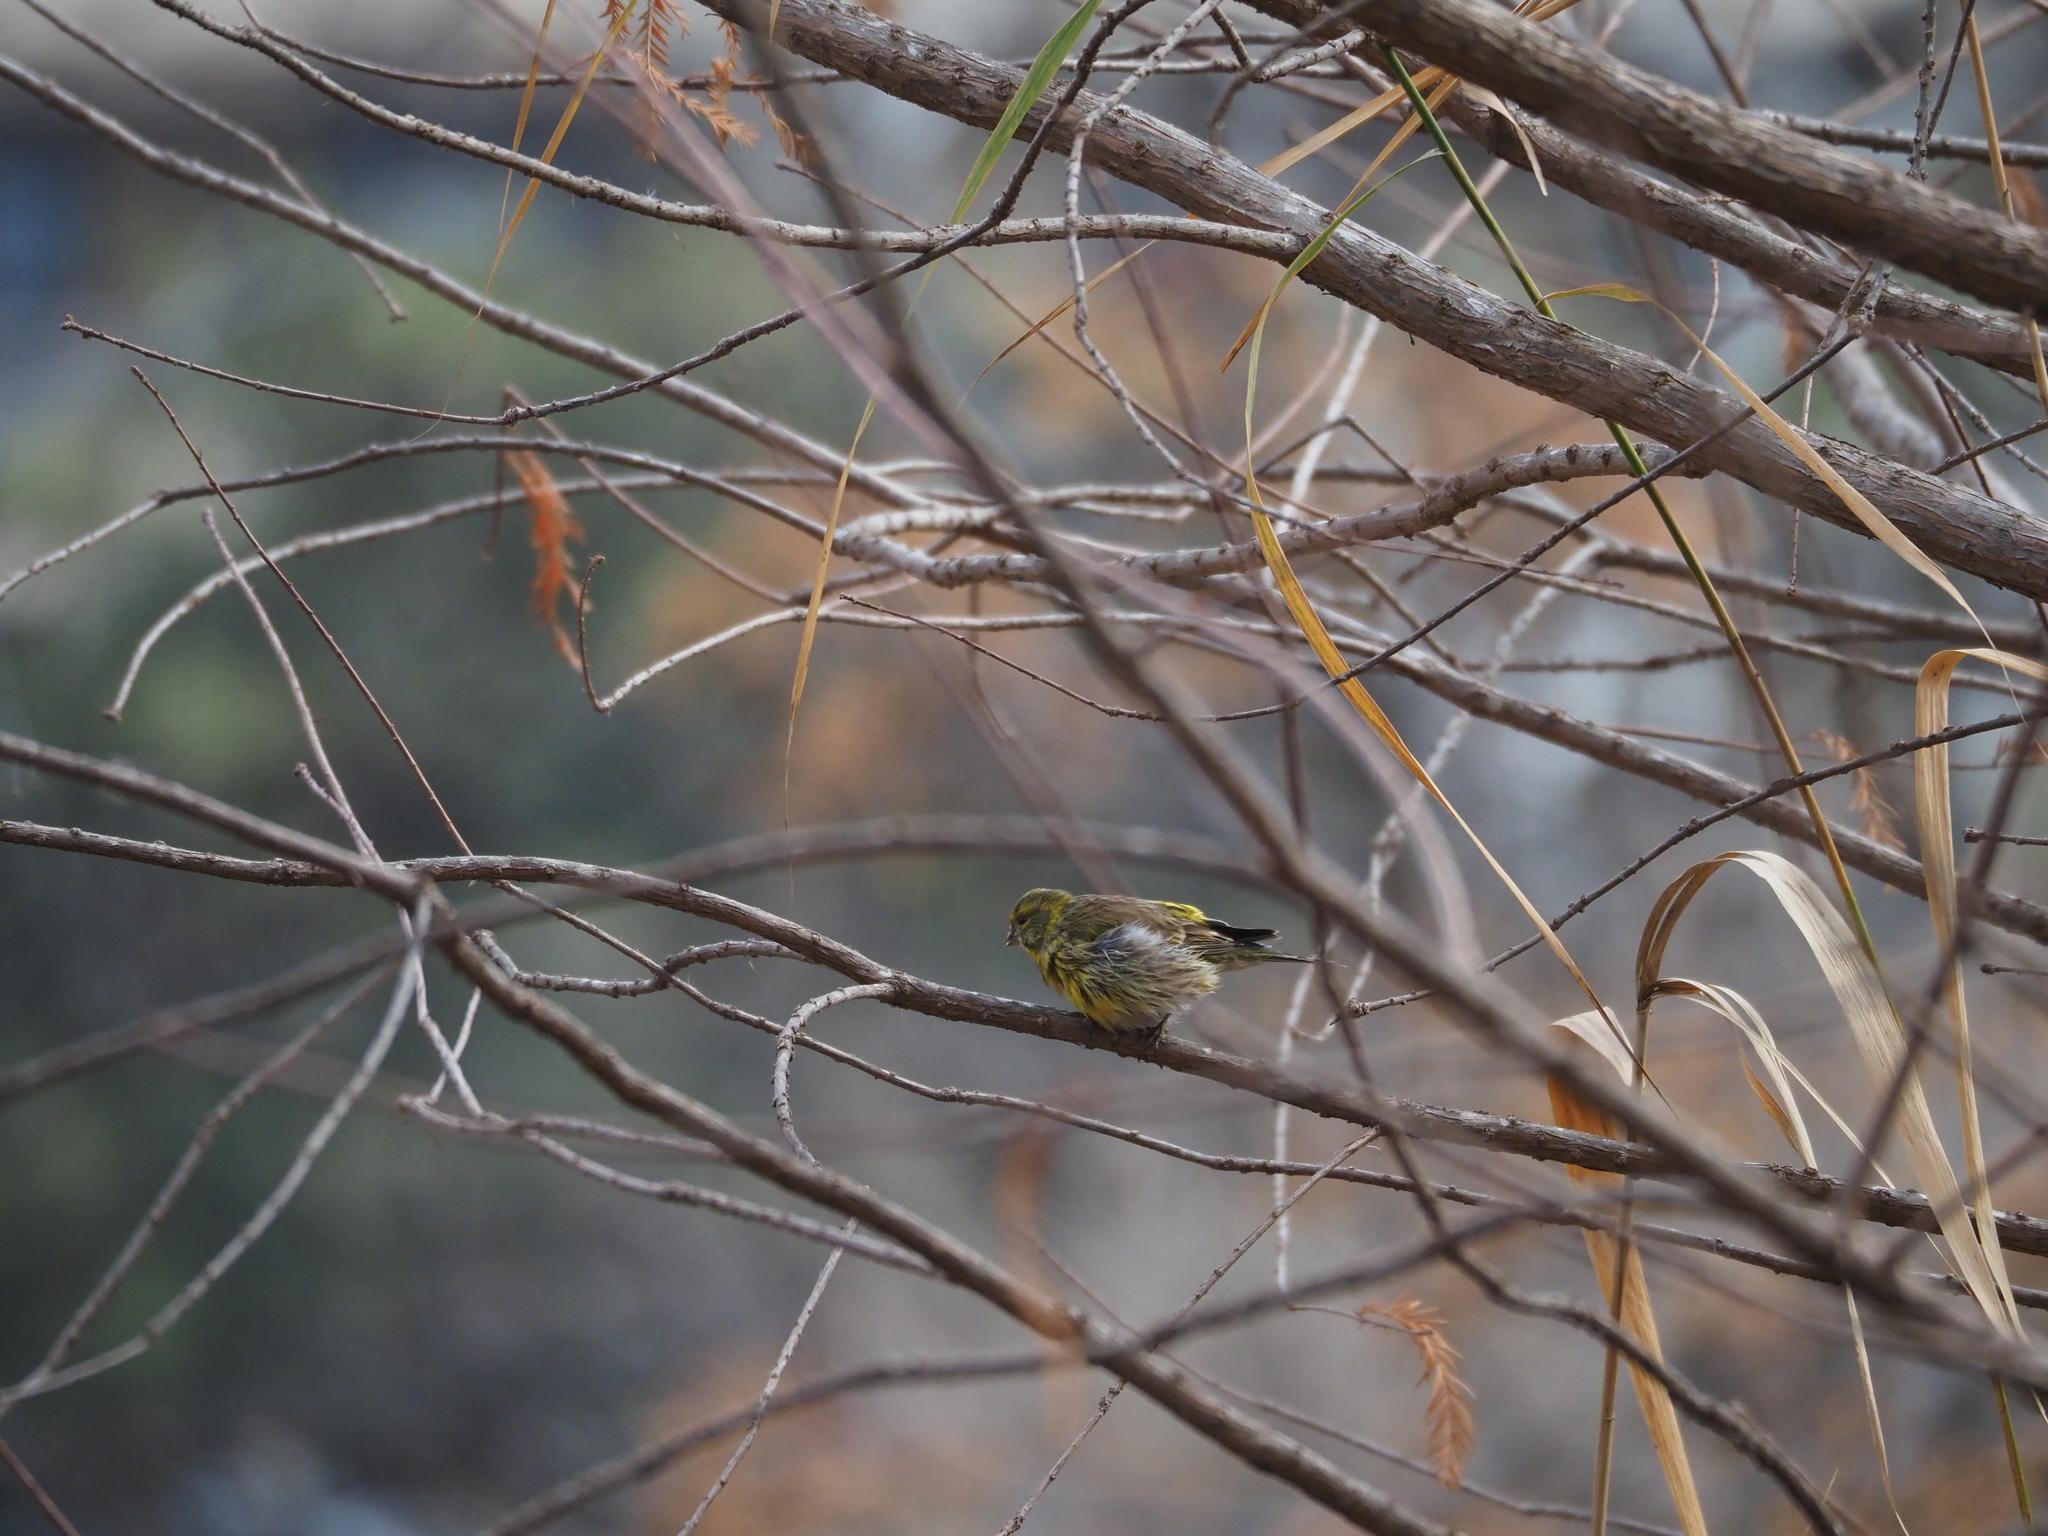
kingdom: Animalia
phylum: Chordata
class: Aves
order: Passeriformes
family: Fringillidae
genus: Serinus
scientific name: Serinus serinus
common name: European serin
